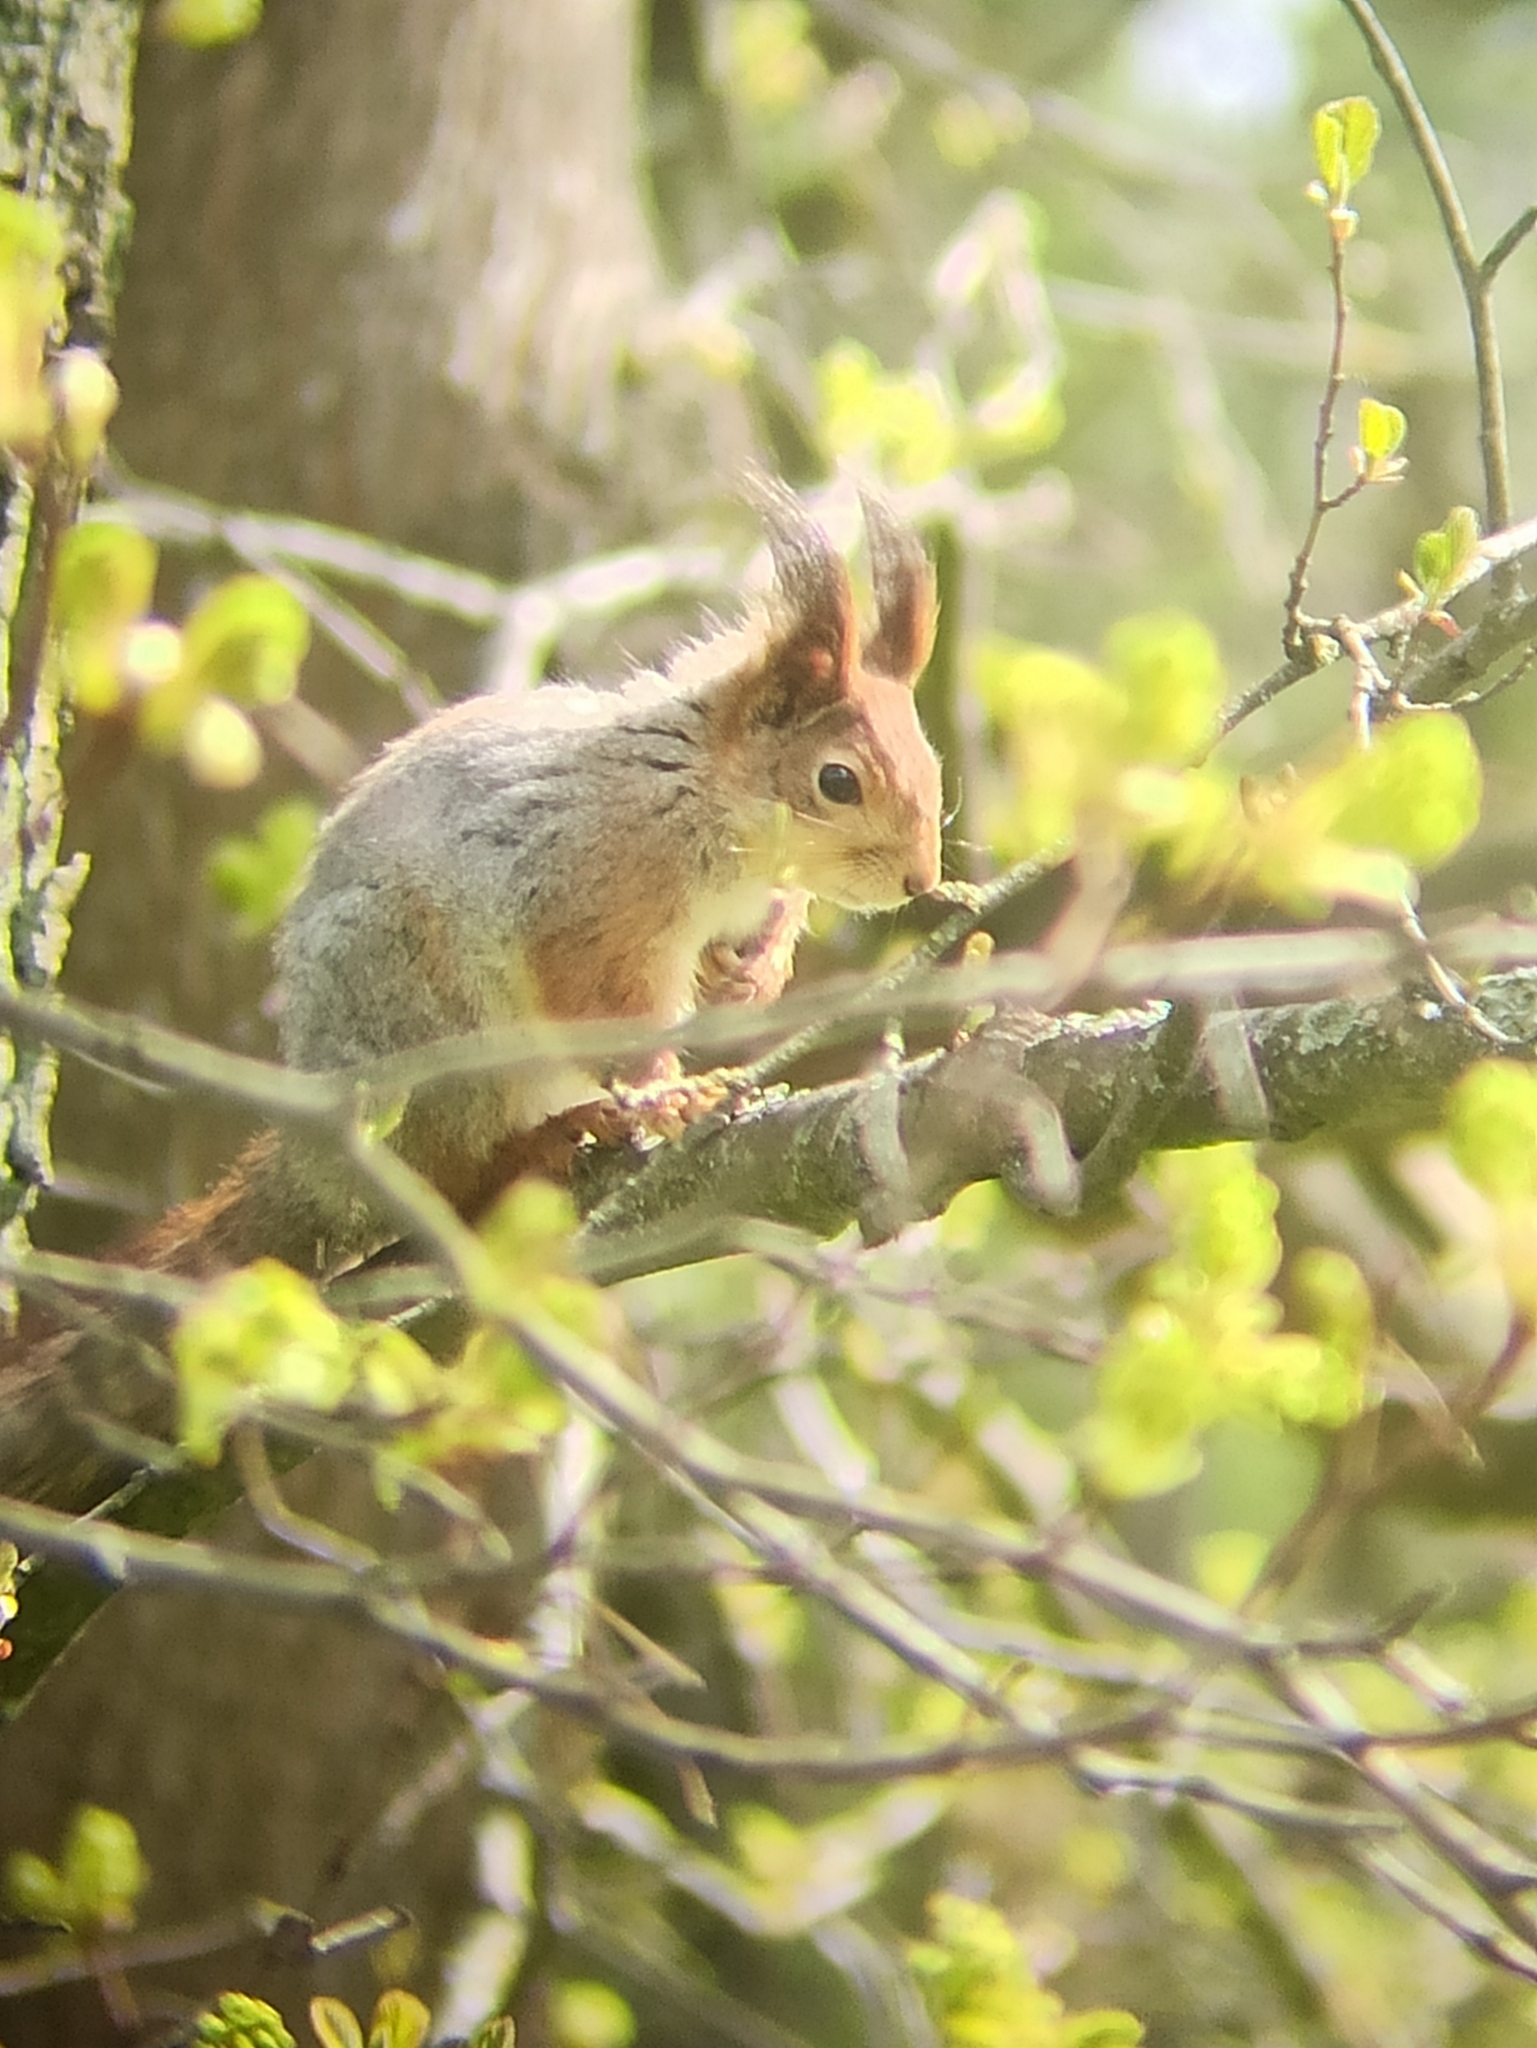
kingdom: Animalia
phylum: Chordata
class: Mammalia
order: Rodentia
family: Sciuridae
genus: Sciurus
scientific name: Sciurus vulgaris
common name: Eurasian red squirrel
